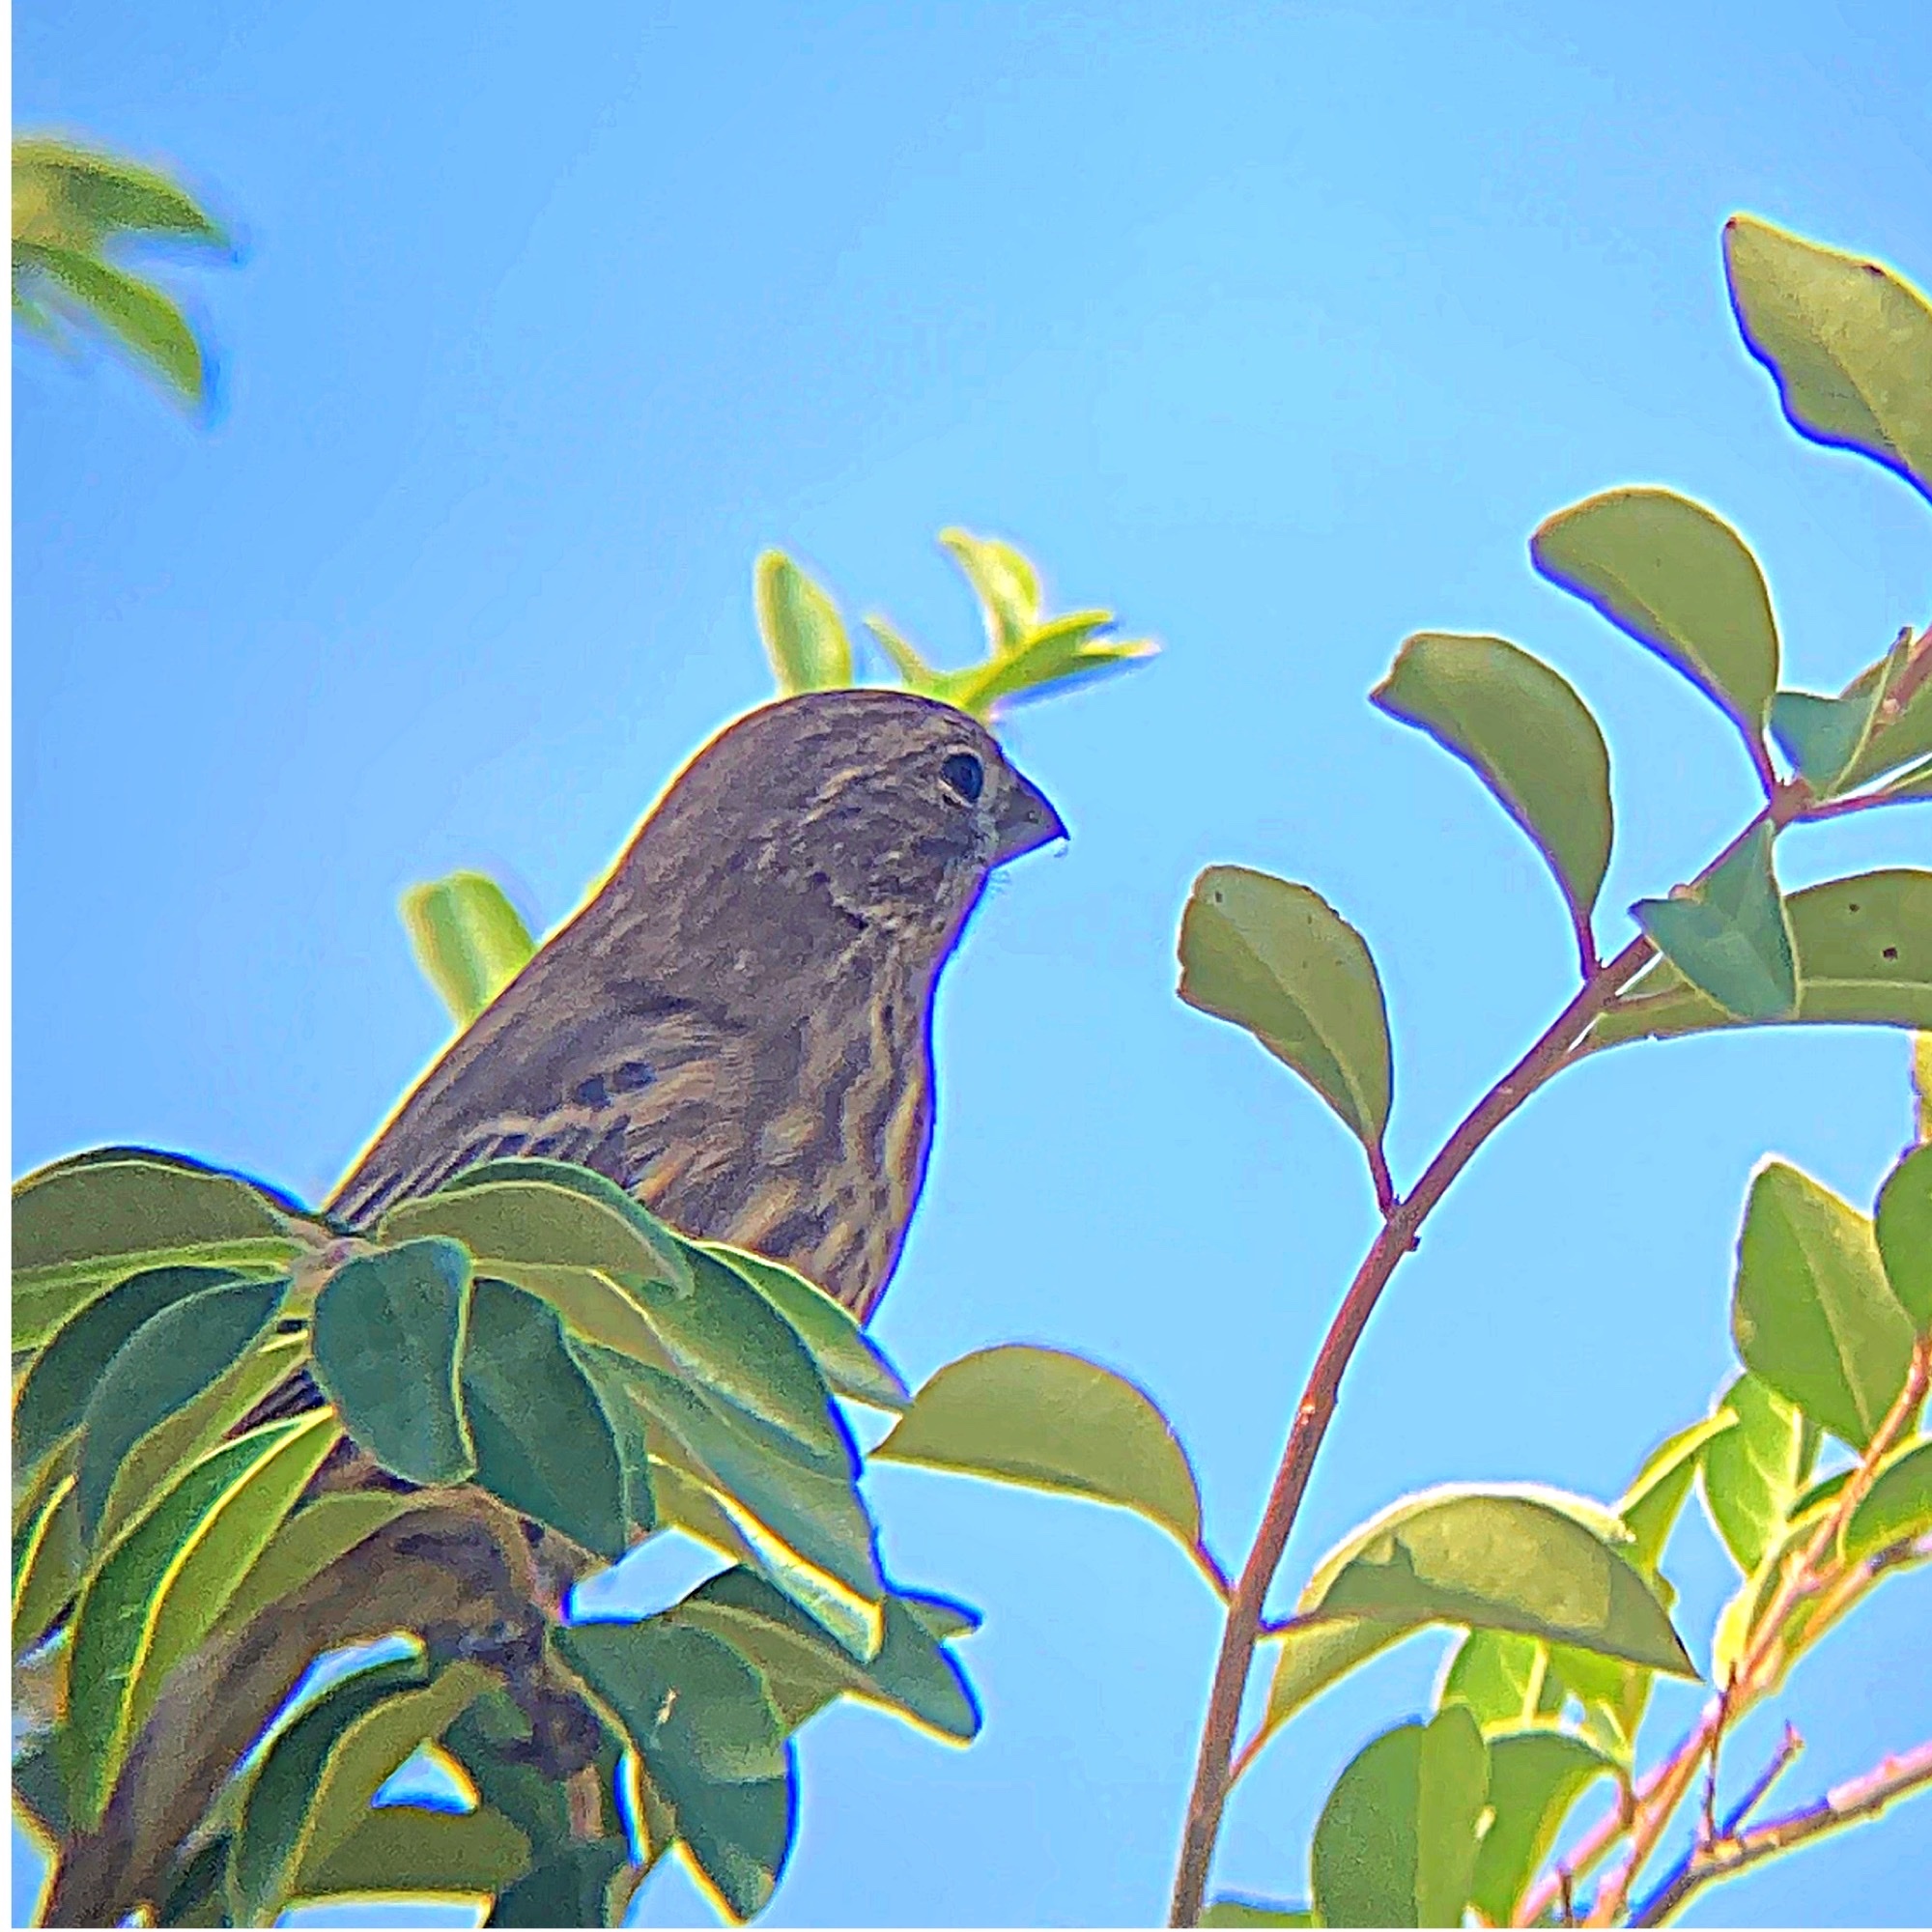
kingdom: Animalia
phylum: Chordata
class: Aves
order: Passeriformes
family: Fringillidae
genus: Haemorhous
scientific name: Haemorhous mexicanus
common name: House finch
